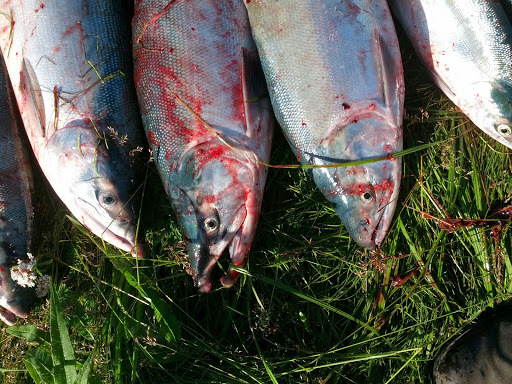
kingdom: Animalia
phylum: Chordata
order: Salmoniformes
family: Salmonidae
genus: Oncorhynchus
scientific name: Oncorhynchus nerka
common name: Sockeye salmon
